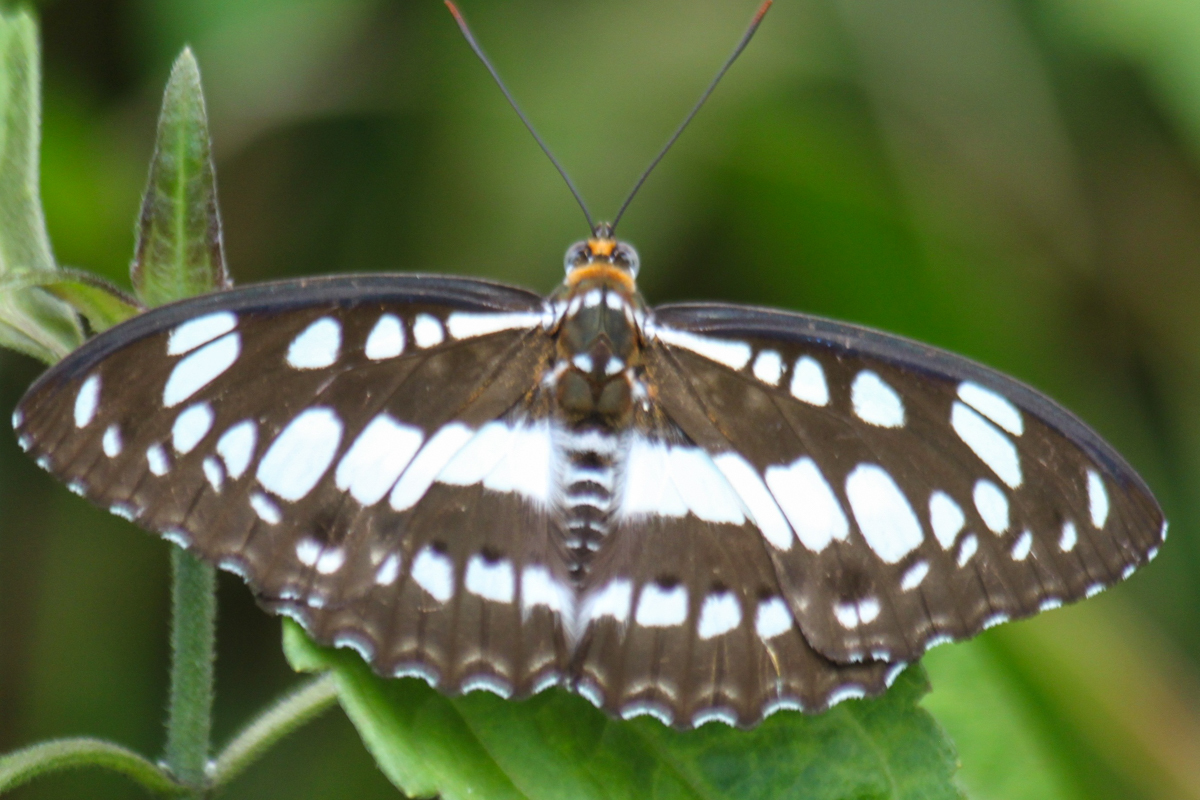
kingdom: Animalia
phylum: Arthropoda
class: Insecta
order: Lepidoptera
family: Nymphalidae
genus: Parathyma
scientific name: Parathyma perius
